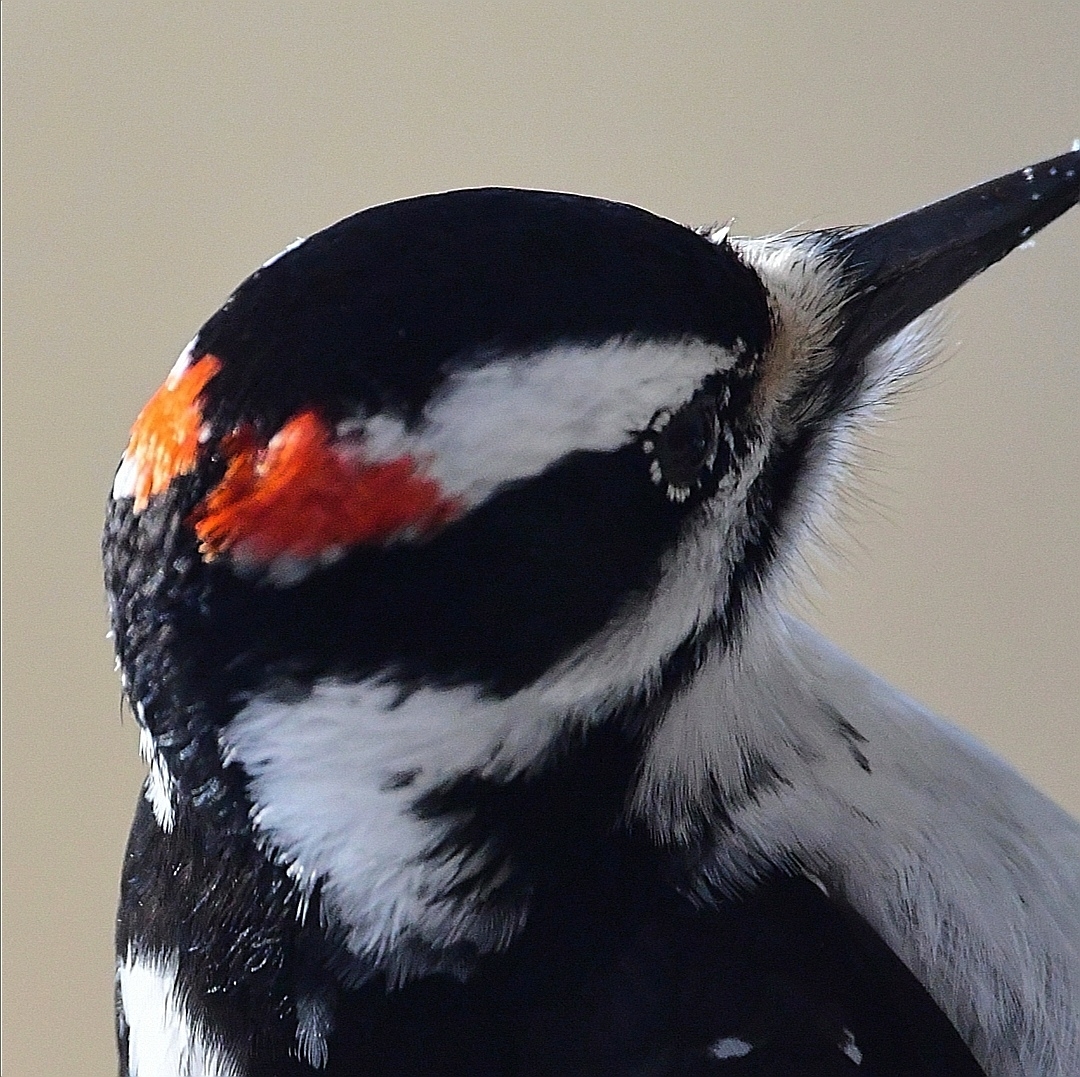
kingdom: Animalia
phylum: Chordata
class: Aves
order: Piciformes
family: Picidae
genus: Leuconotopicus
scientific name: Leuconotopicus villosus
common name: Hairy woodpecker
